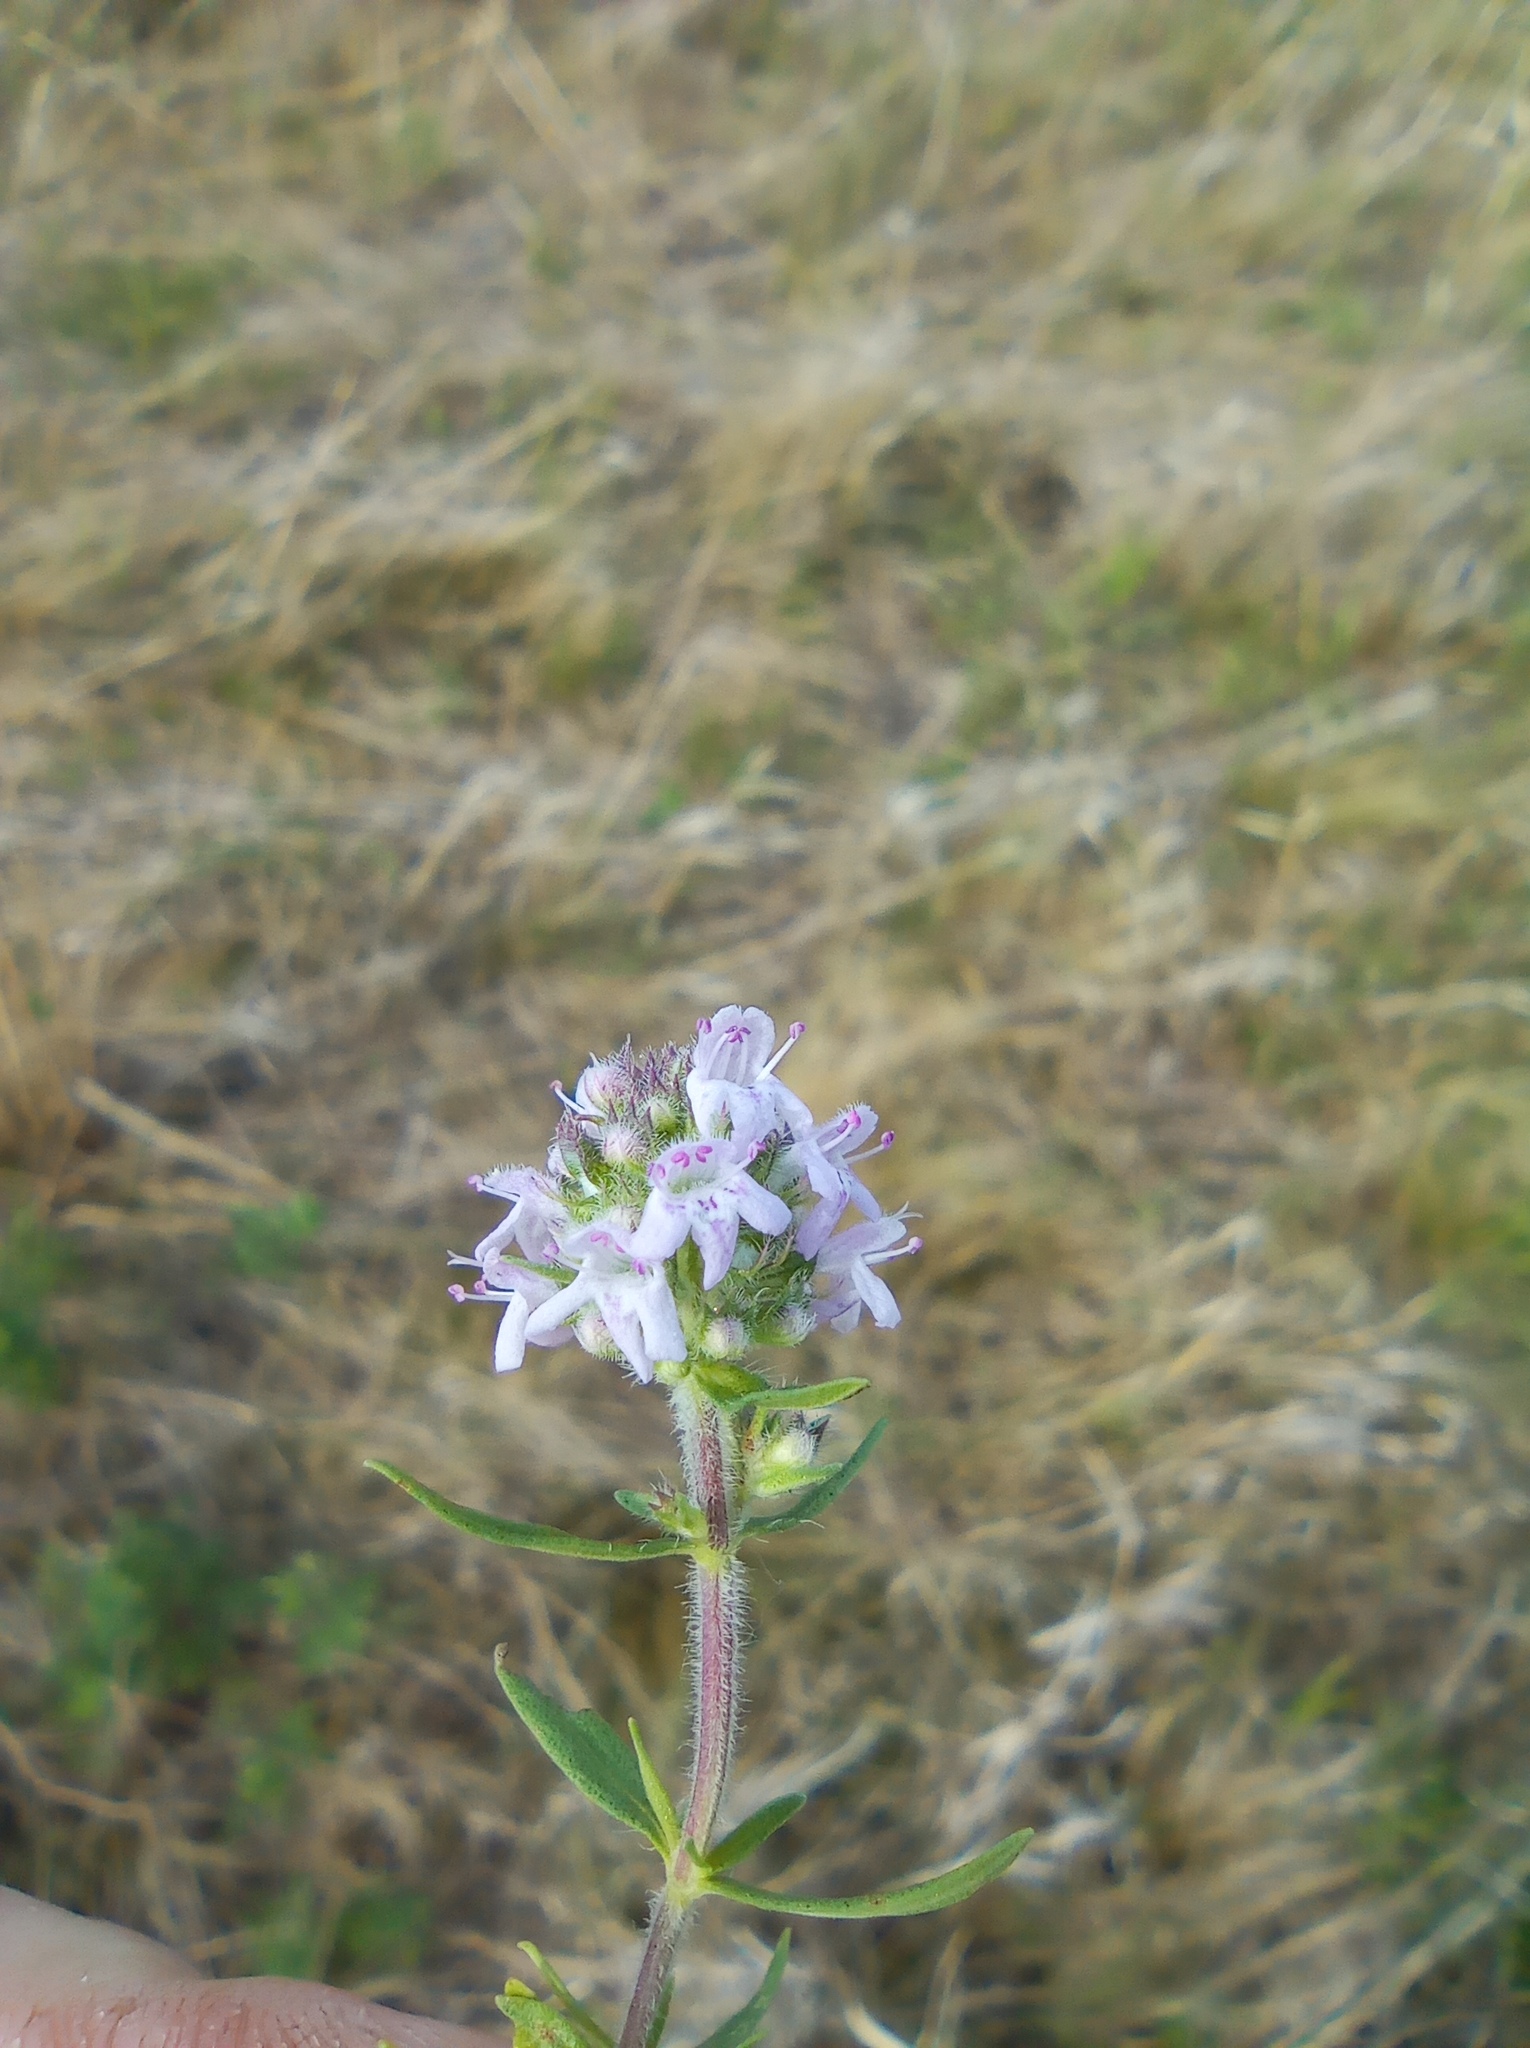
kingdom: Plantae
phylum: Tracheophyta
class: Magnoliopsida
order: Lamiales
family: Lamiaceae
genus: Thymus
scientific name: Thymus pannonicus
